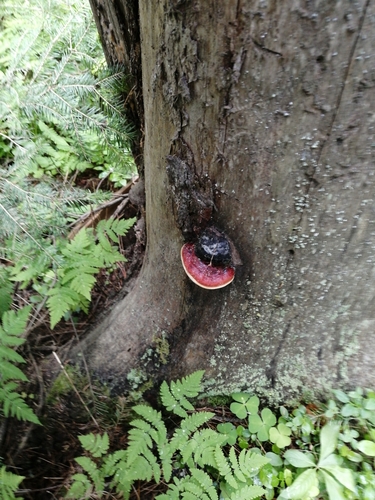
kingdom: Fungi
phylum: Basidiomycota
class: Agaricomycetes
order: Polyporales
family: Fomitopsidaceae
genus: Fomitopsis
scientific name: Fomitopsis pinicola
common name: Red-belted bracket
